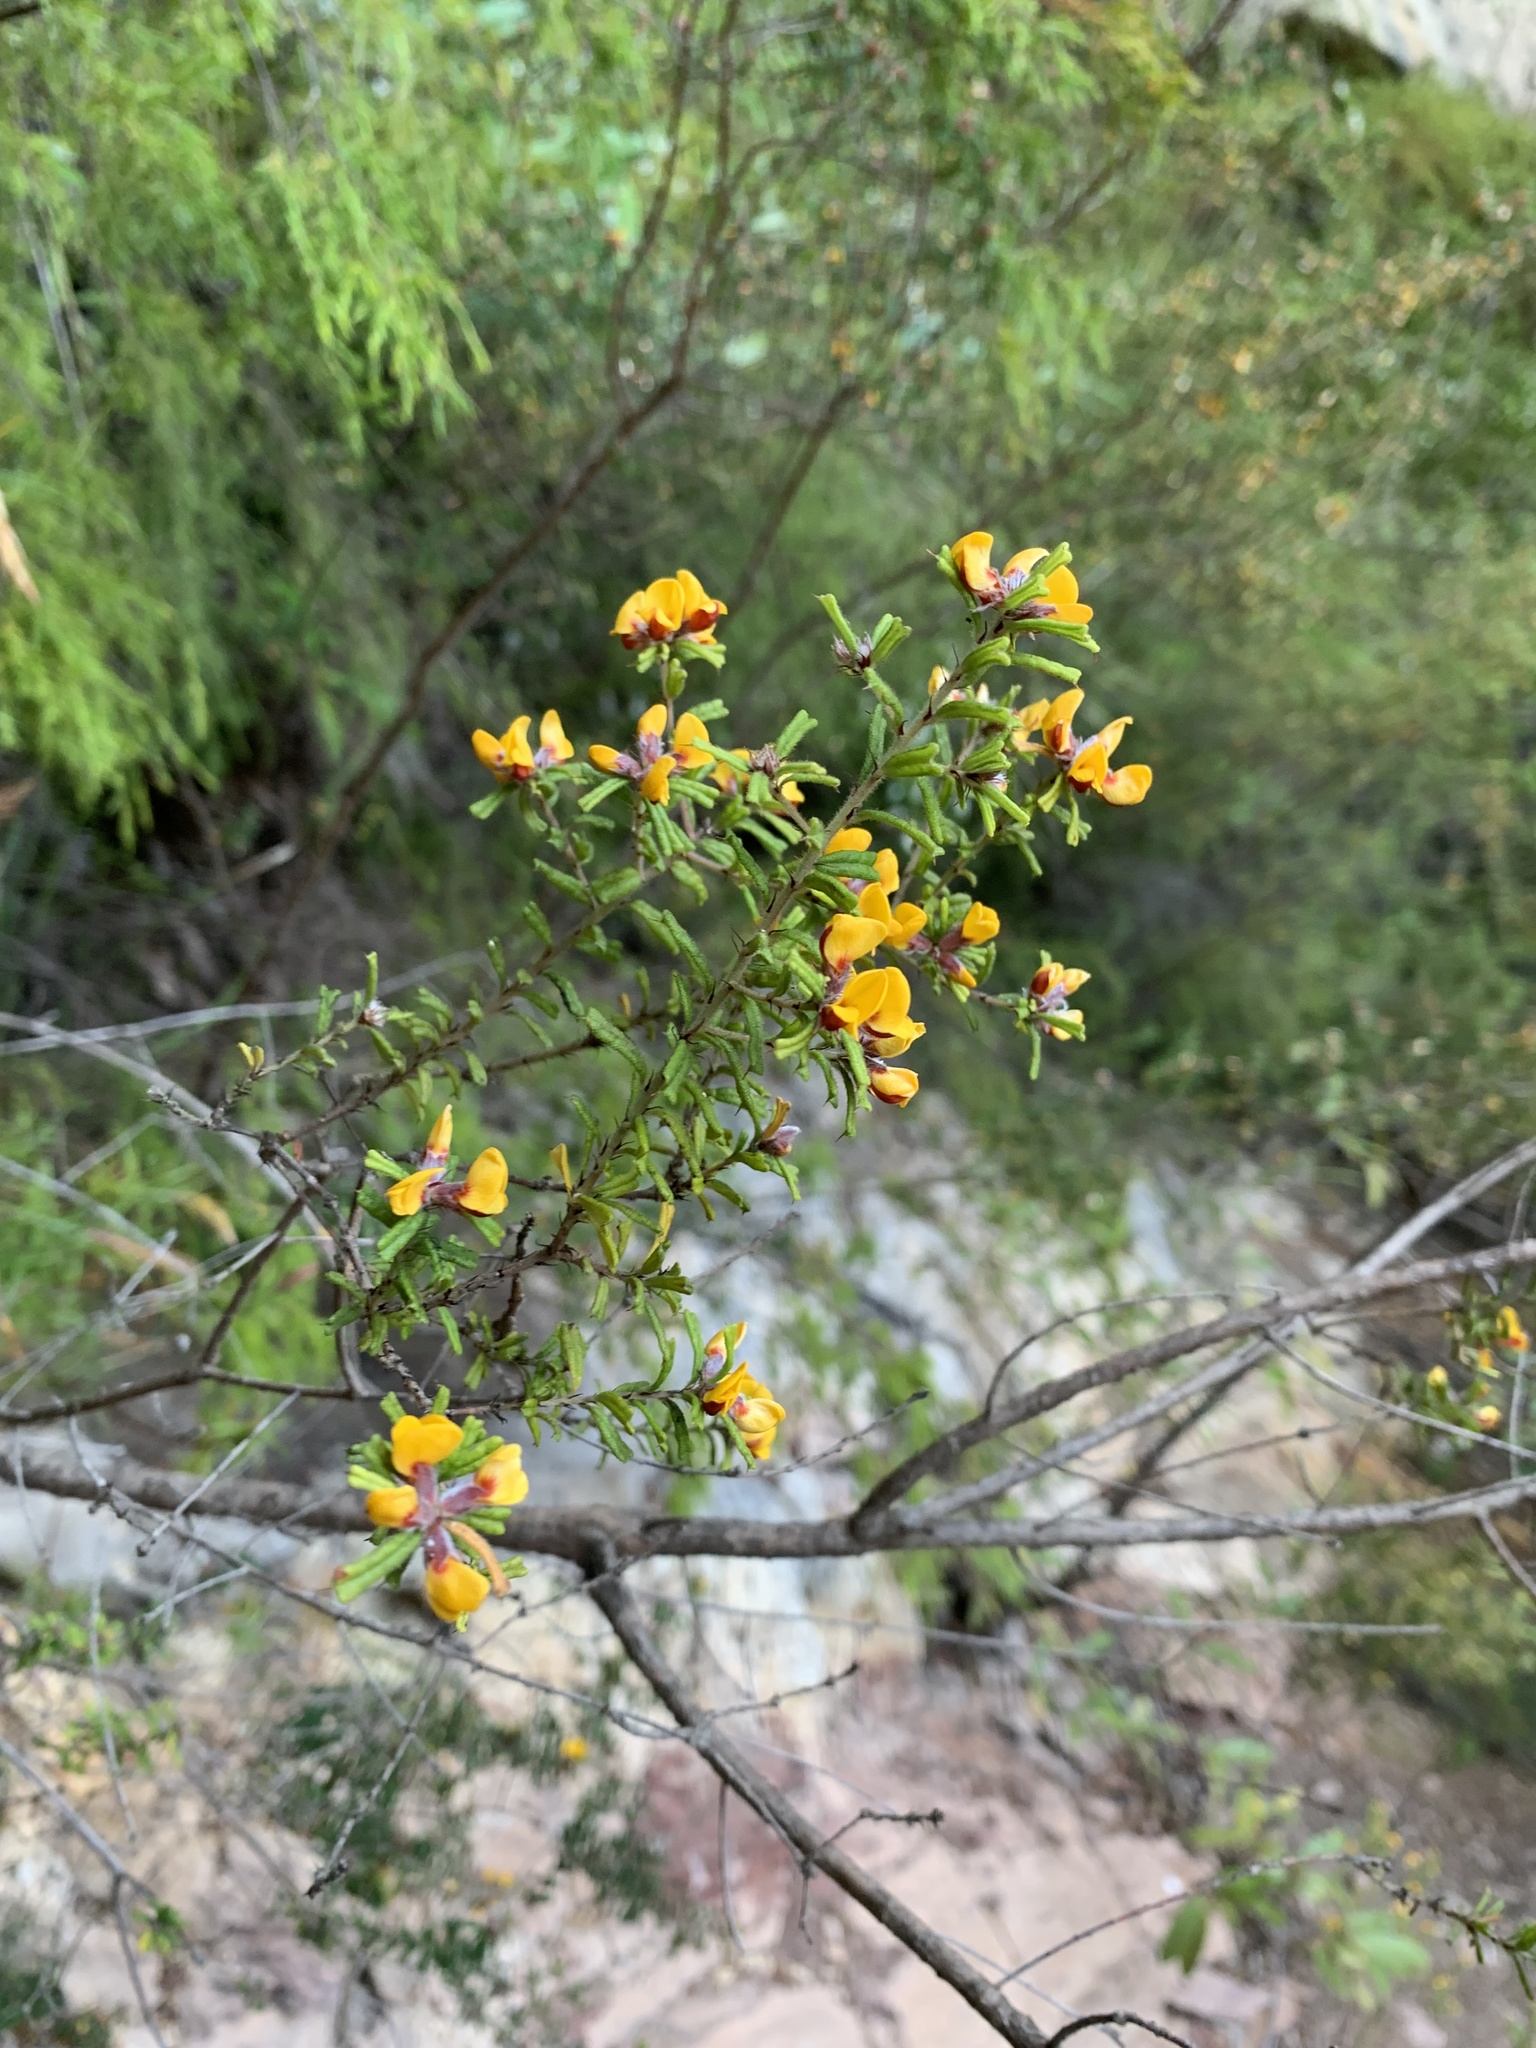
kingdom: Plantae
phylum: Tracheophyta
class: Magnoliopsida
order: Fabales
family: Fabaceae
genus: Pultenaea
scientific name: Pultenaea scabra
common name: Rough bush-pea
